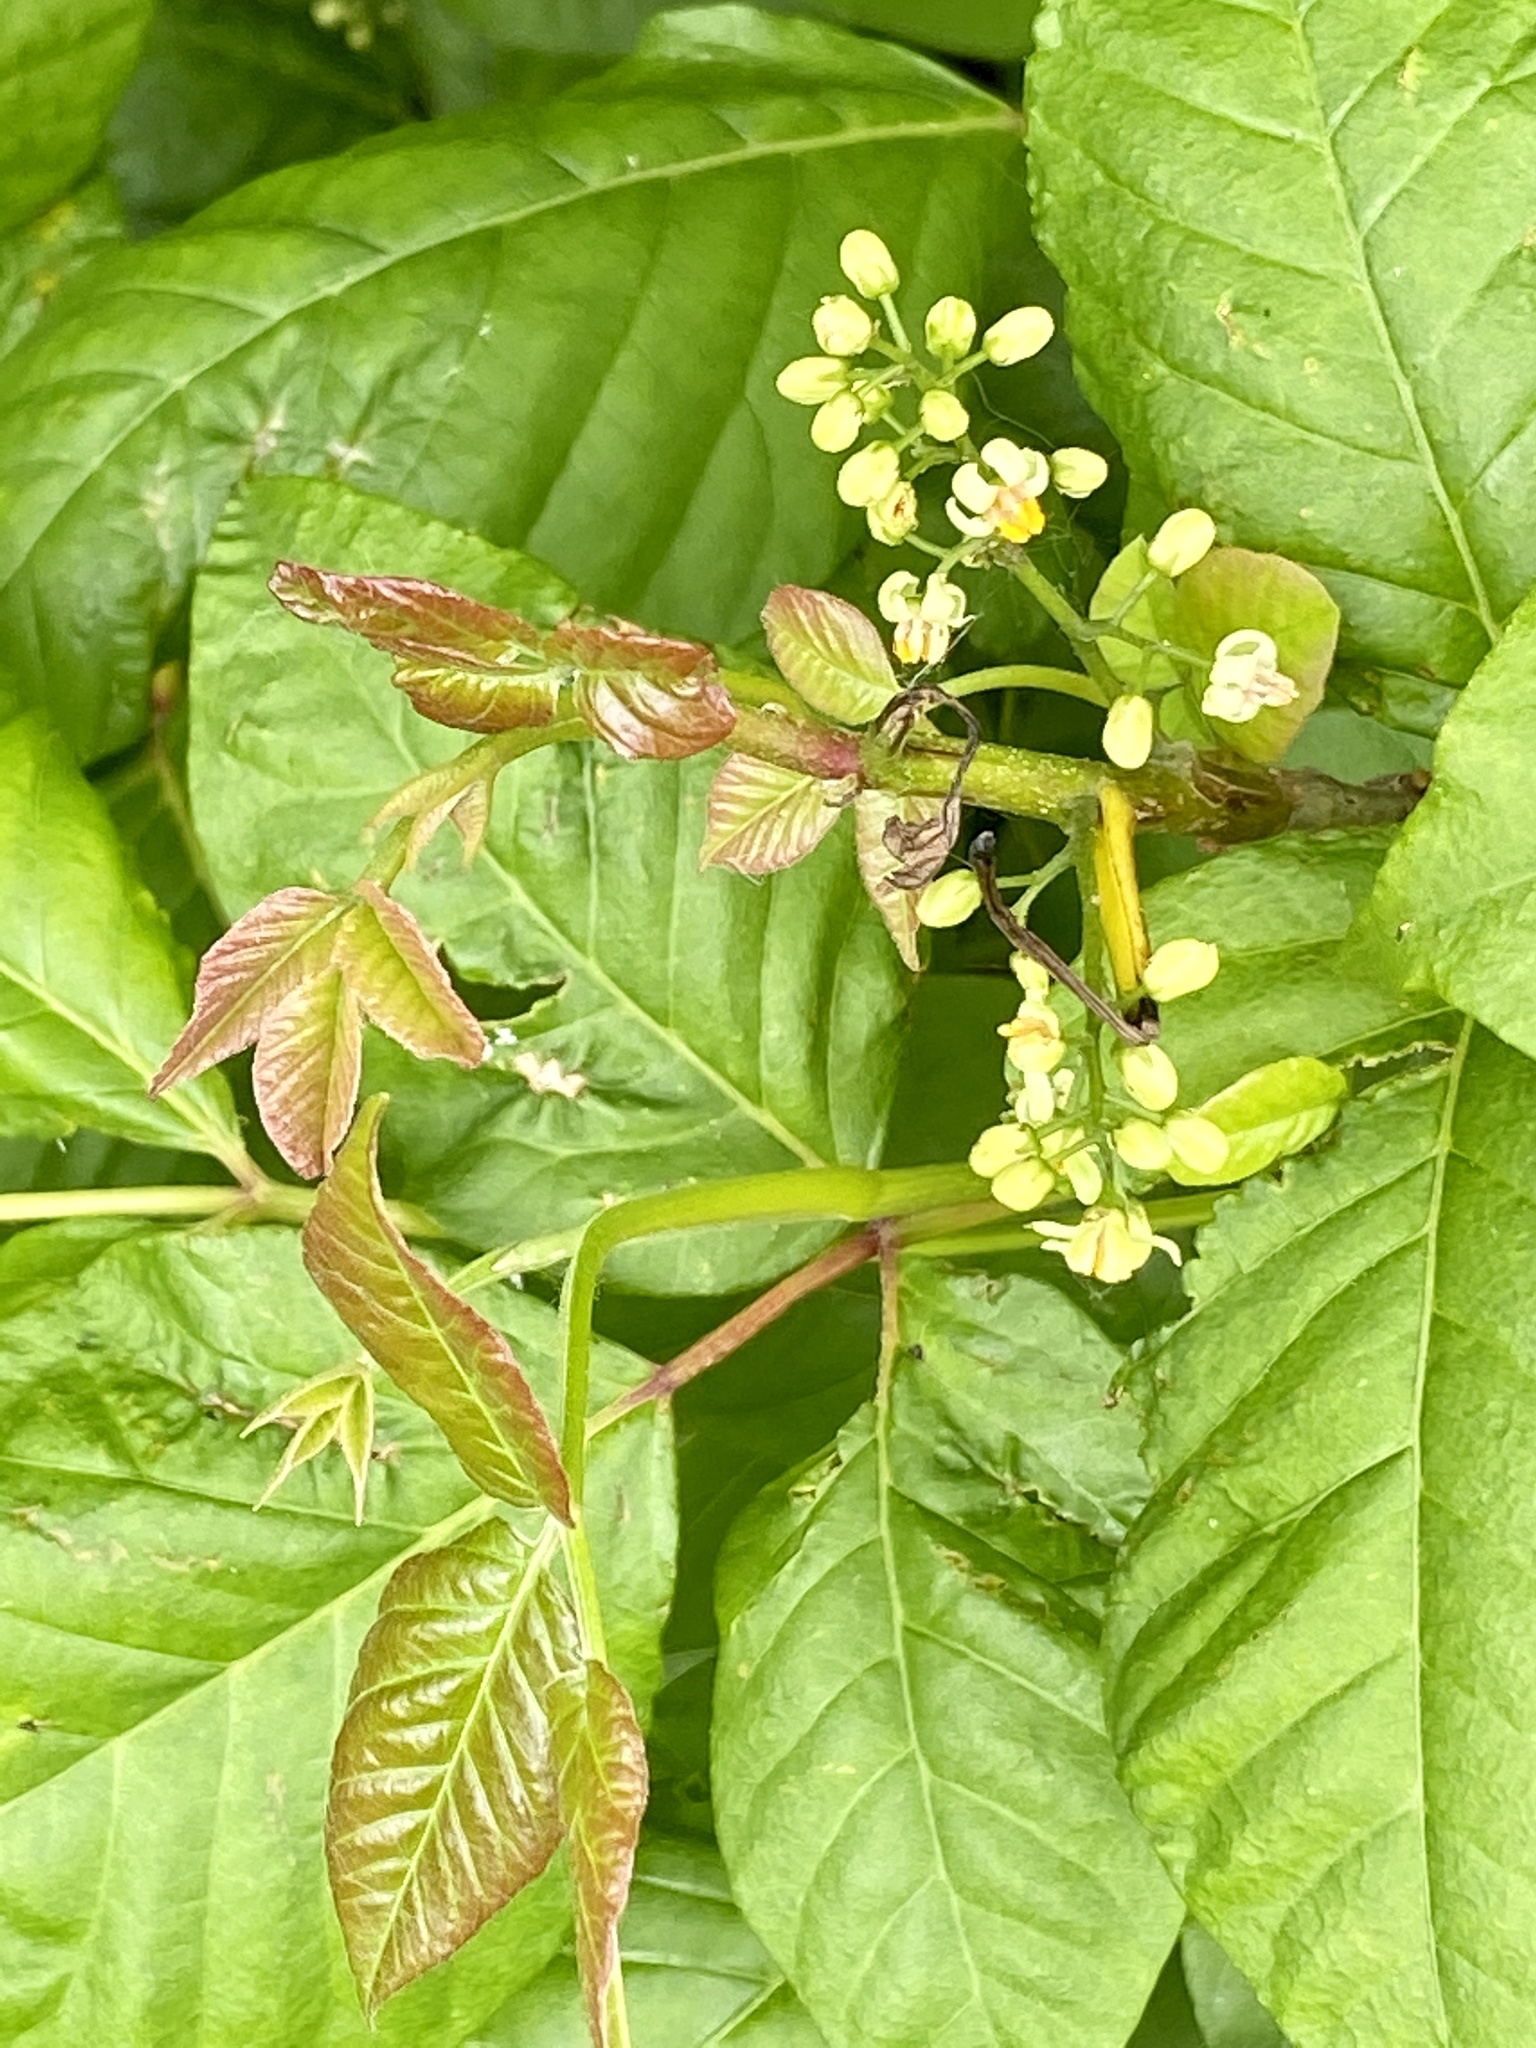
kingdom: Plantae
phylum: Tracheophyta
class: Magnoliopsida
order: Sapindales
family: Anacardiaceae
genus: Toxicodendron
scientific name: Toxicodendron radicans
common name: Poison ivy
